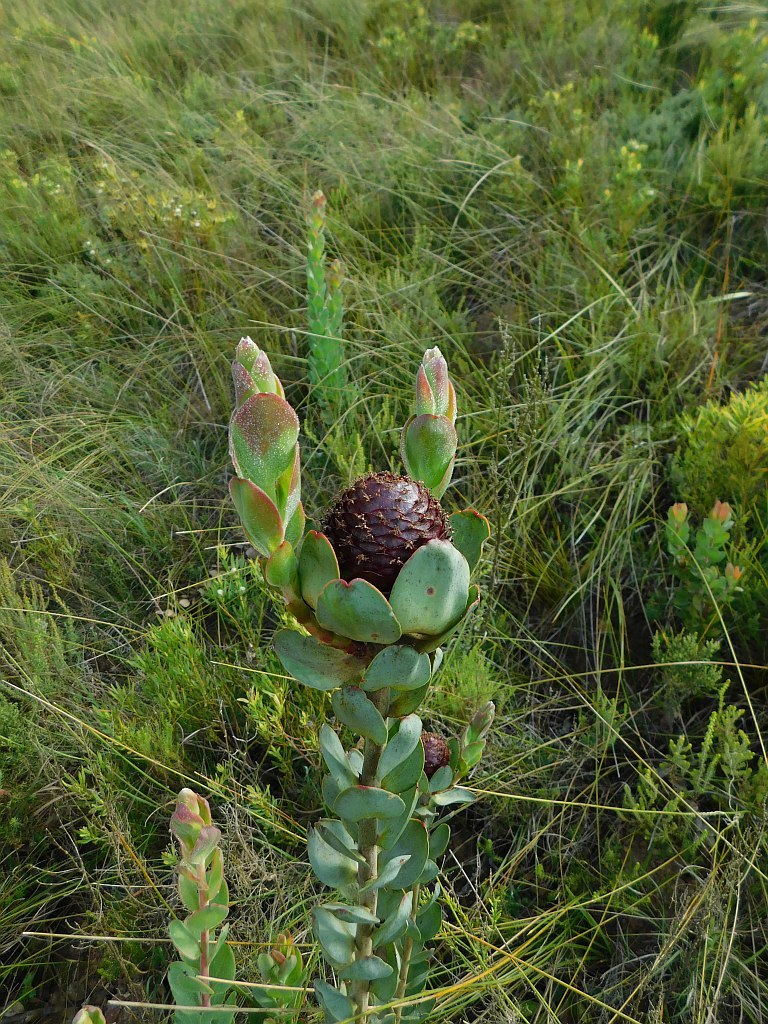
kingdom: Plantae
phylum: Tracheophyta
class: Magnoliopsida
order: Proteales
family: Proteaceae
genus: Leucadendron
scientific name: Leucadendron elimense
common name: Elim conebush
